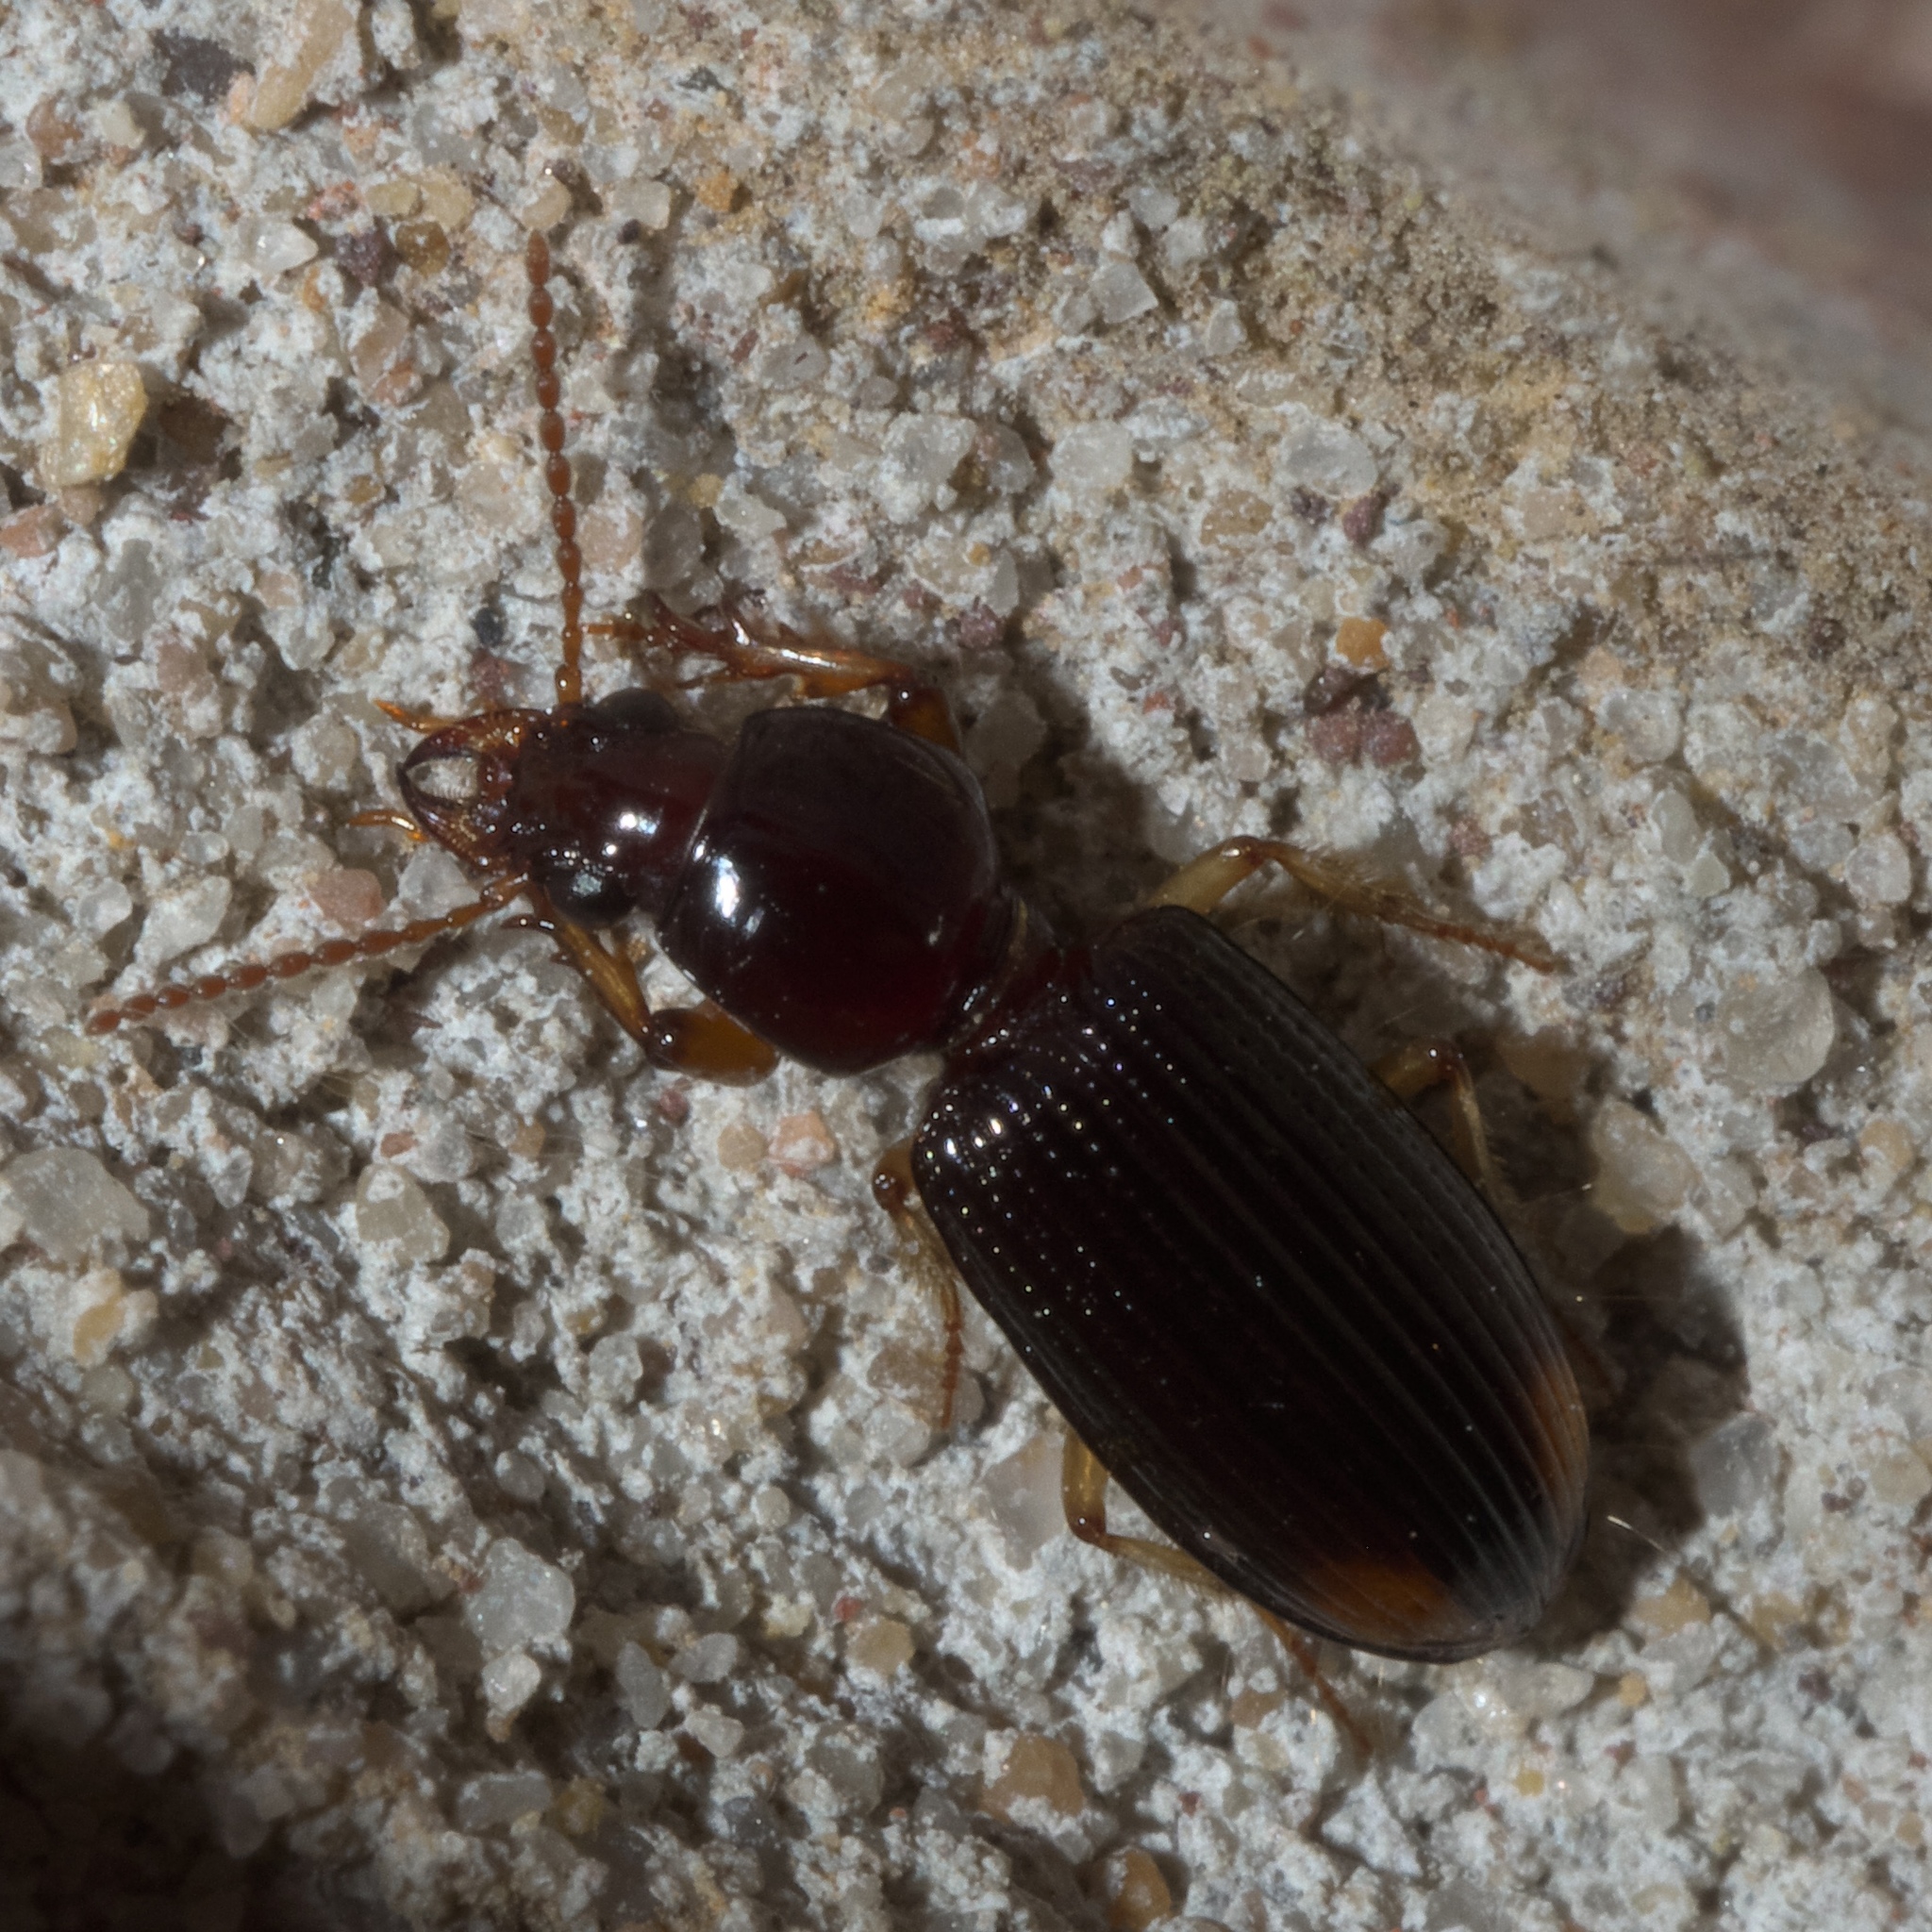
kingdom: Animalia
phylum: Arthropoda
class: Insecta
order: Coleoptera
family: Carabidae
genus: Aspidoglossa
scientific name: Aspidoglossa subangulata
